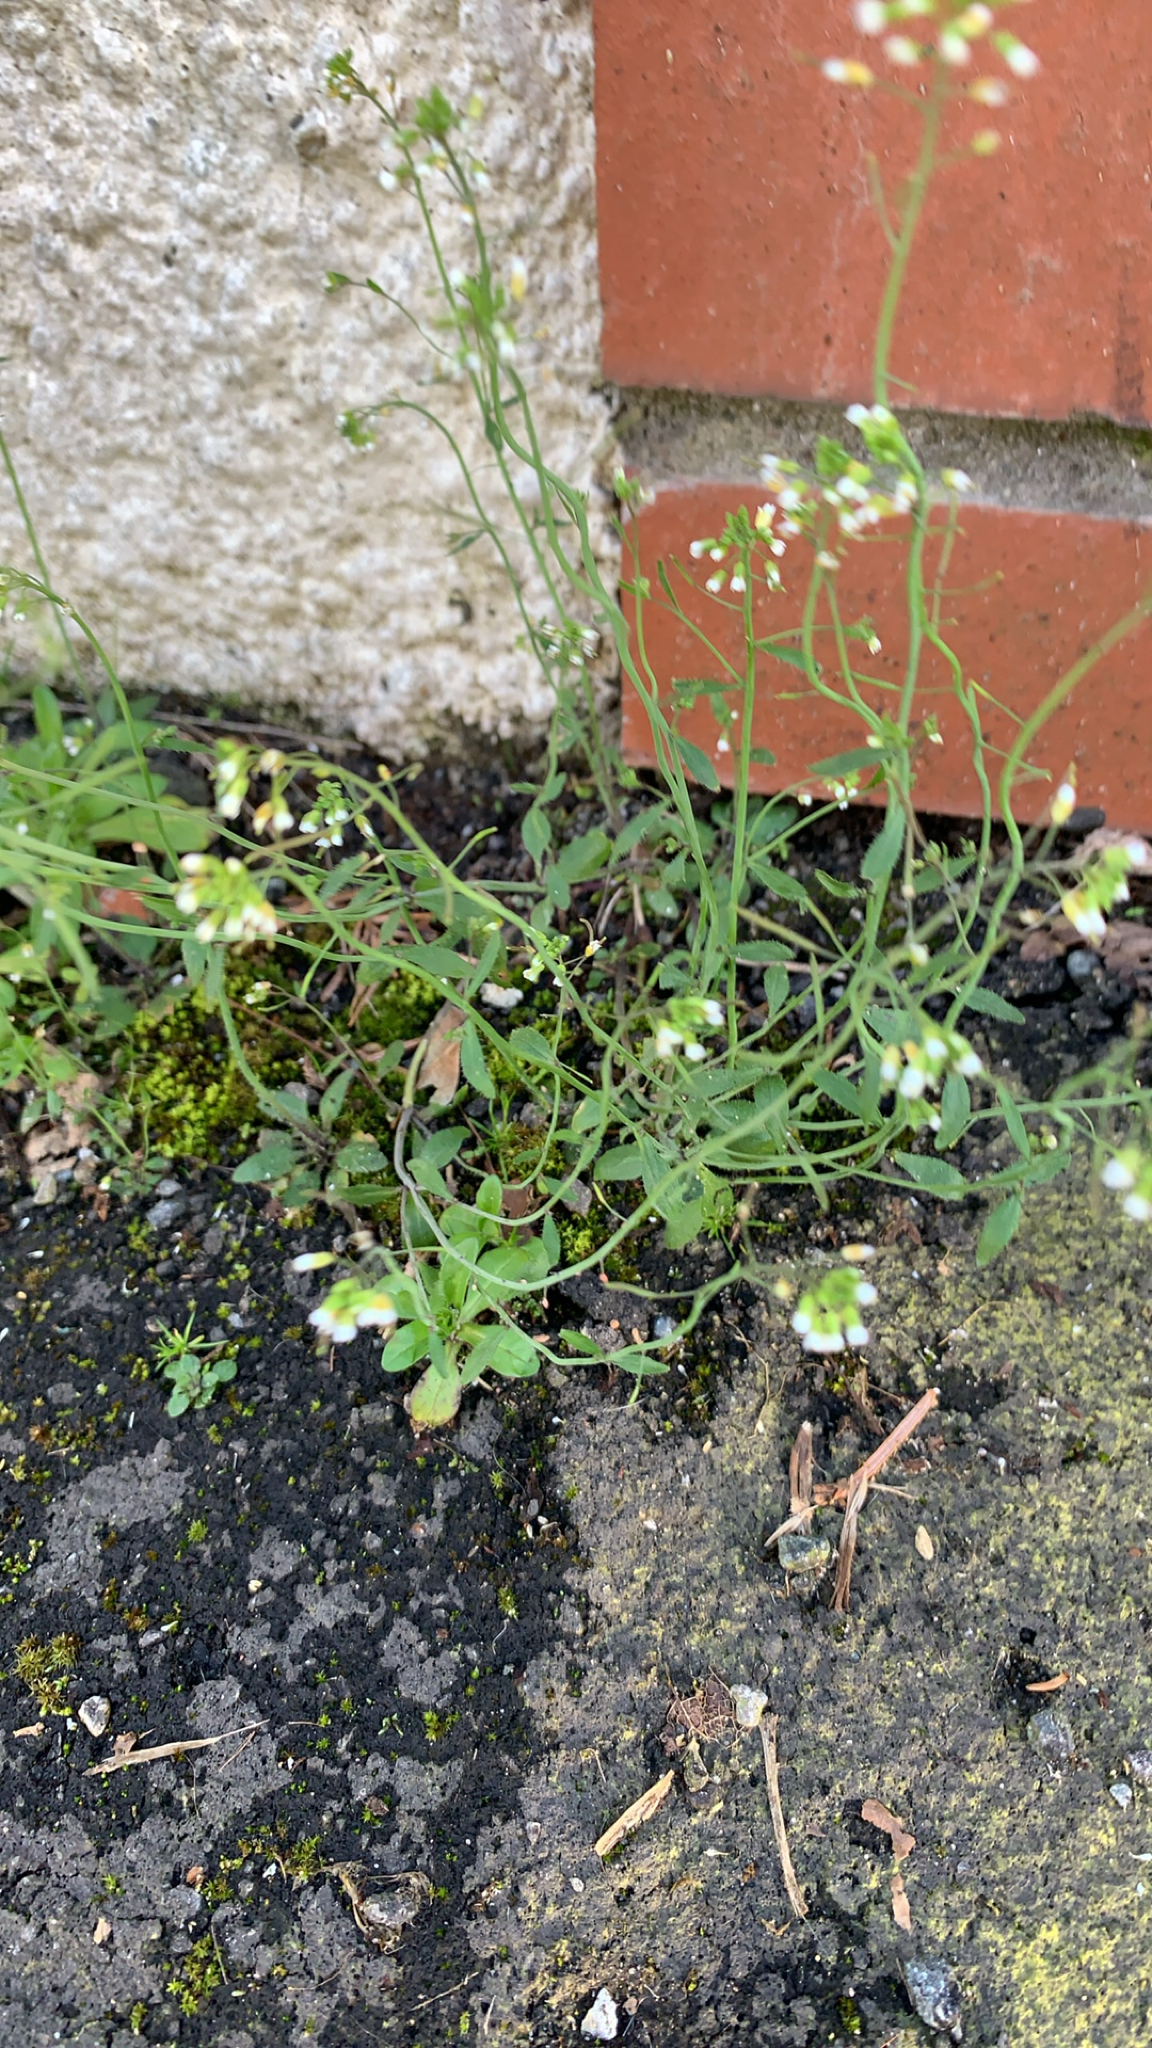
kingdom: Plantae
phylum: Tracheophyta
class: Magnoliopsida
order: Brassicales
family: Brassicaceae
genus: Arabidopsis
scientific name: Arabidopsis thaliana
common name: Thale cress
